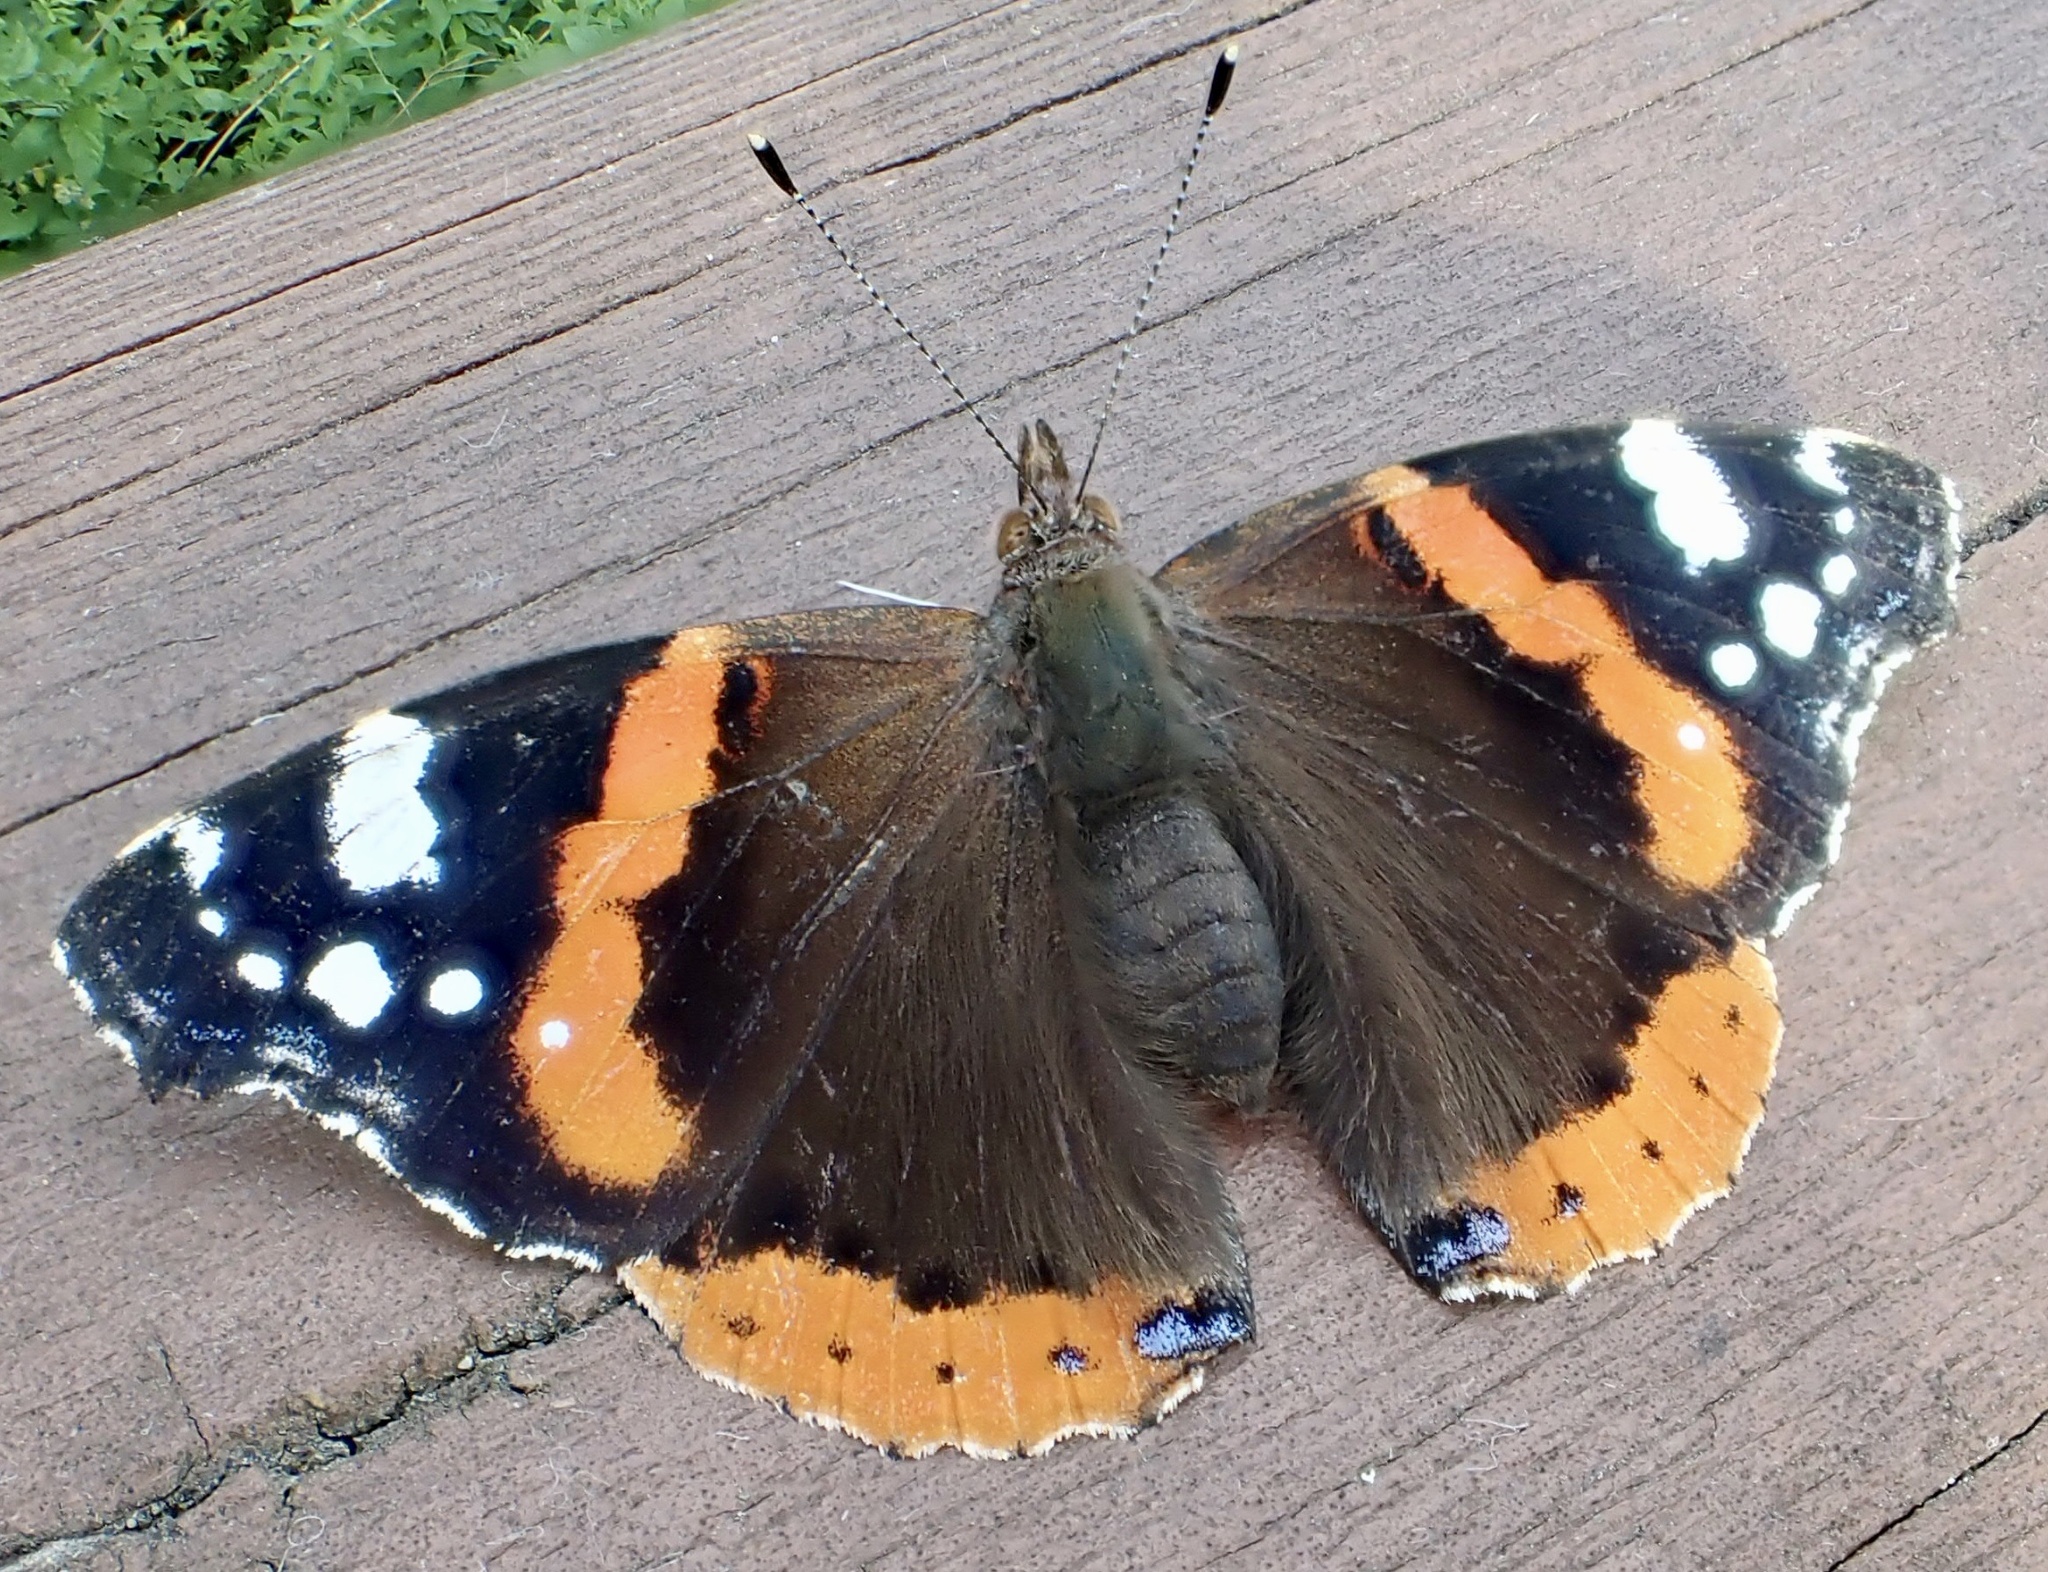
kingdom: Animalia
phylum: Arthropoda
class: Insecta
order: Lepidoptera
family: Nymphalidae
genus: Vanessa
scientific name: Vanessa atalanta
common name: Red admiral
